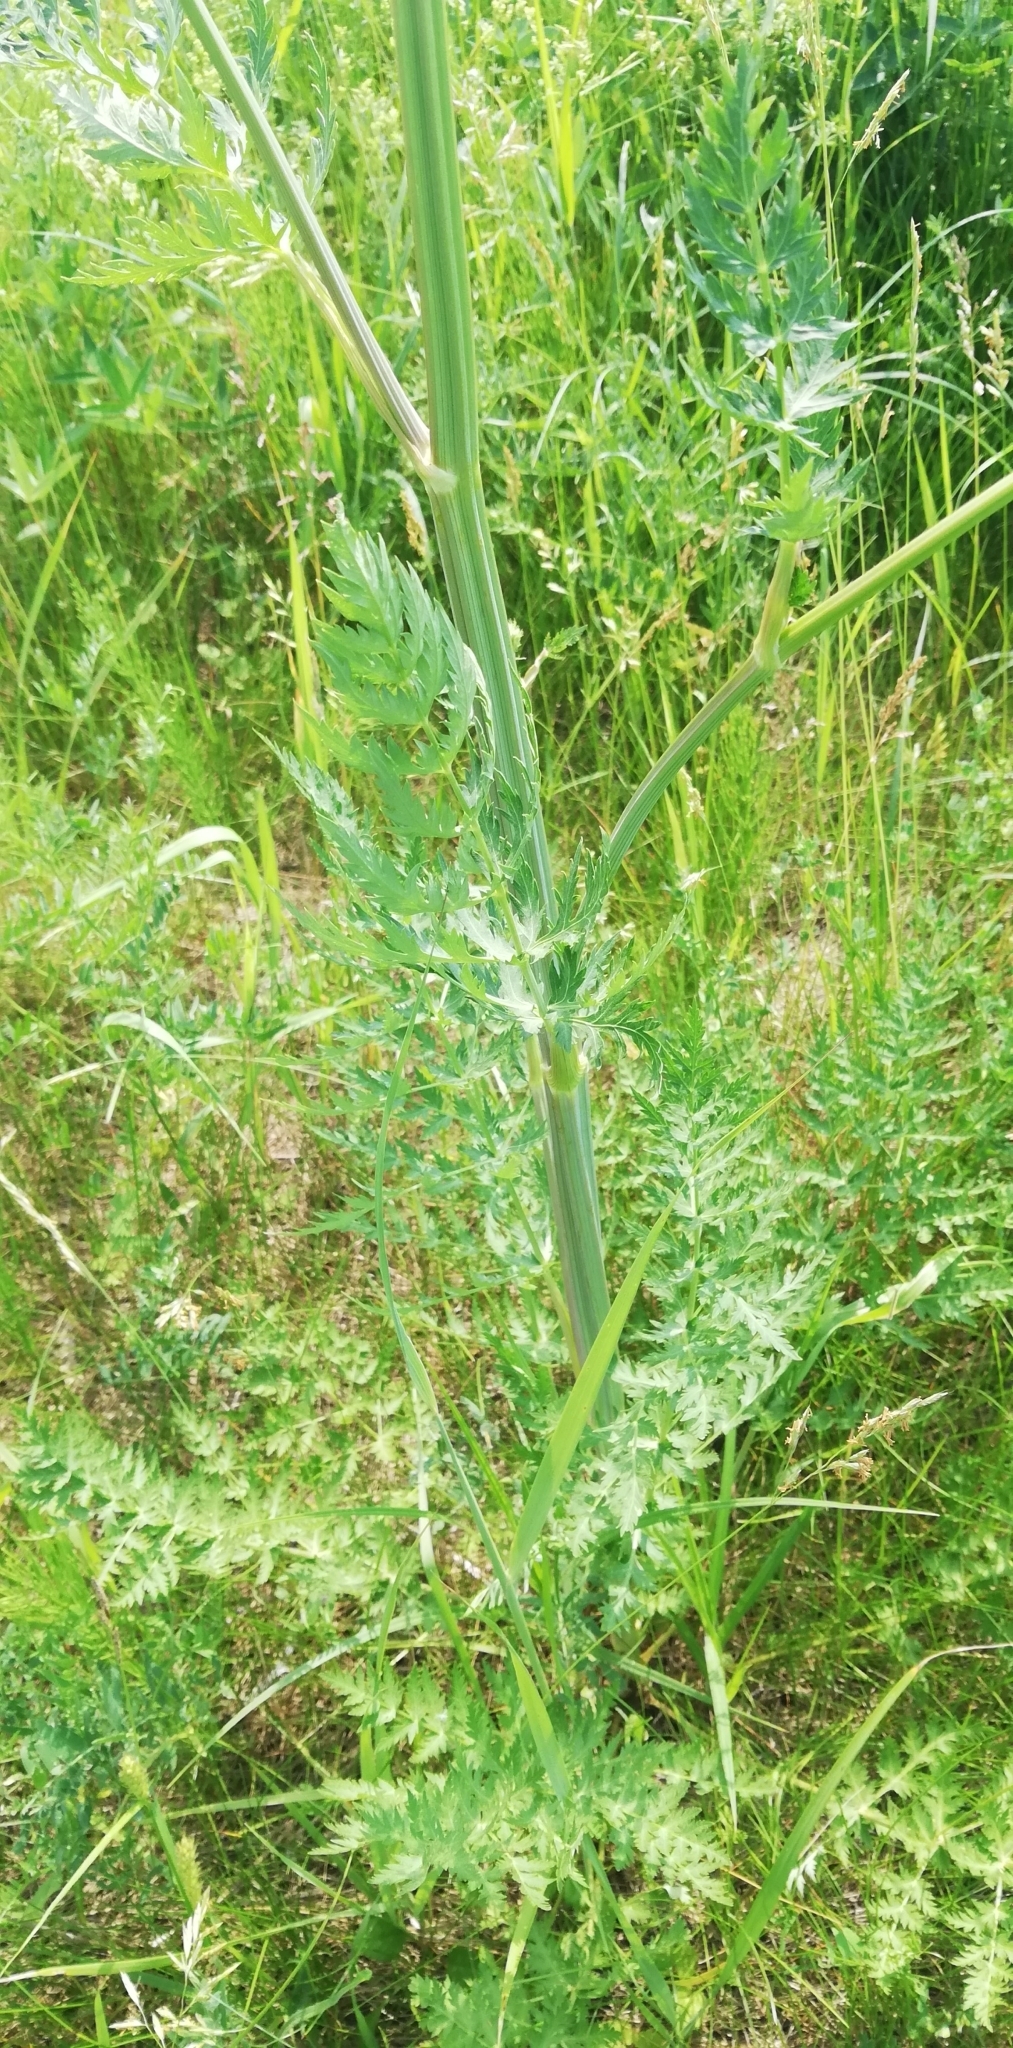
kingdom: Plantae
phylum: Tracheophyta
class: Magnoliopsida
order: Apiales
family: Apiaceae
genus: Seseli
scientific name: Seseli libanotis
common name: Mooncarrot
